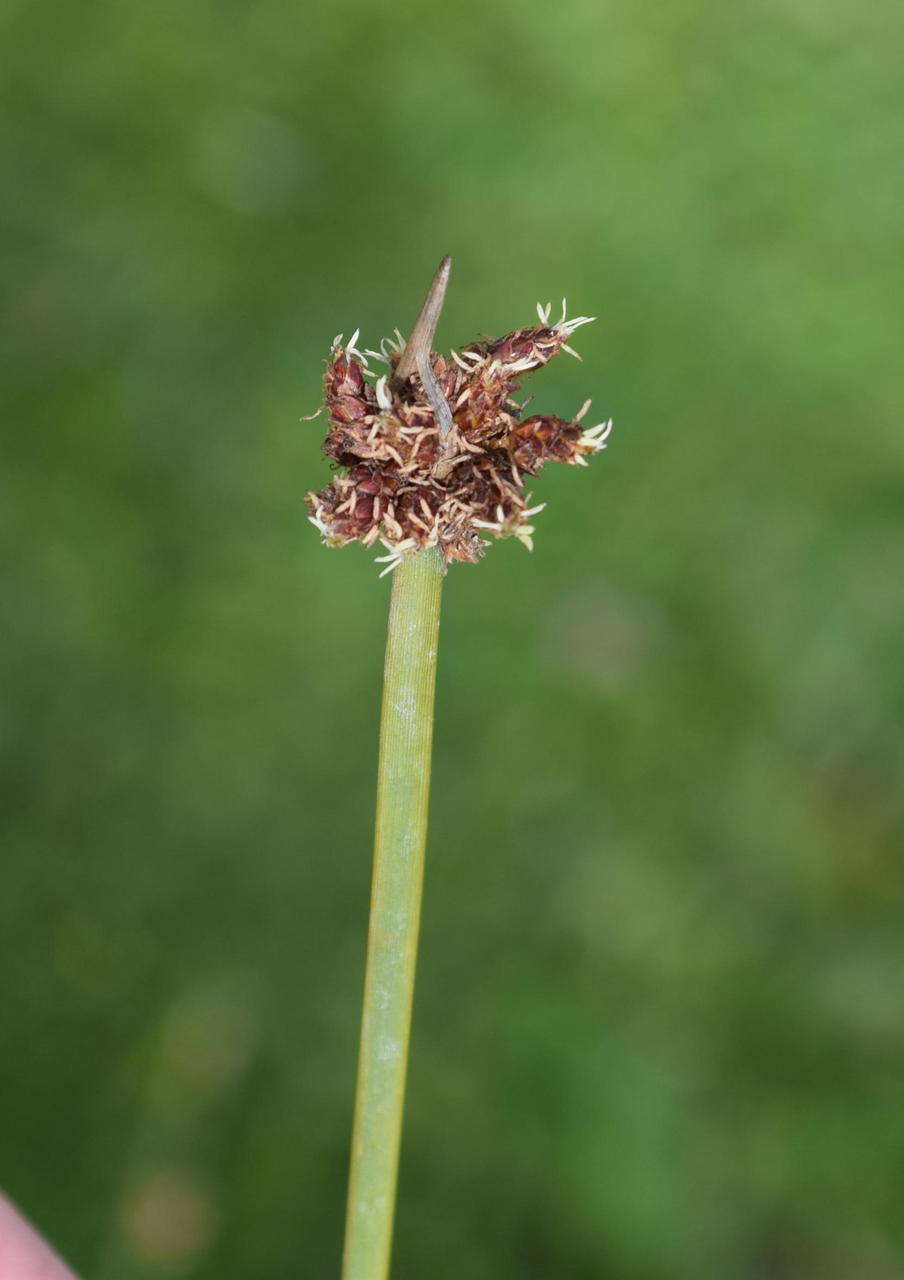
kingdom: Plantae
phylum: Tracheophyta
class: Liliopsida
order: Poales
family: Cyperaceae
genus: Schoenoplectus
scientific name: Schoenoplectus pungens
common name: Sharp club-rush
